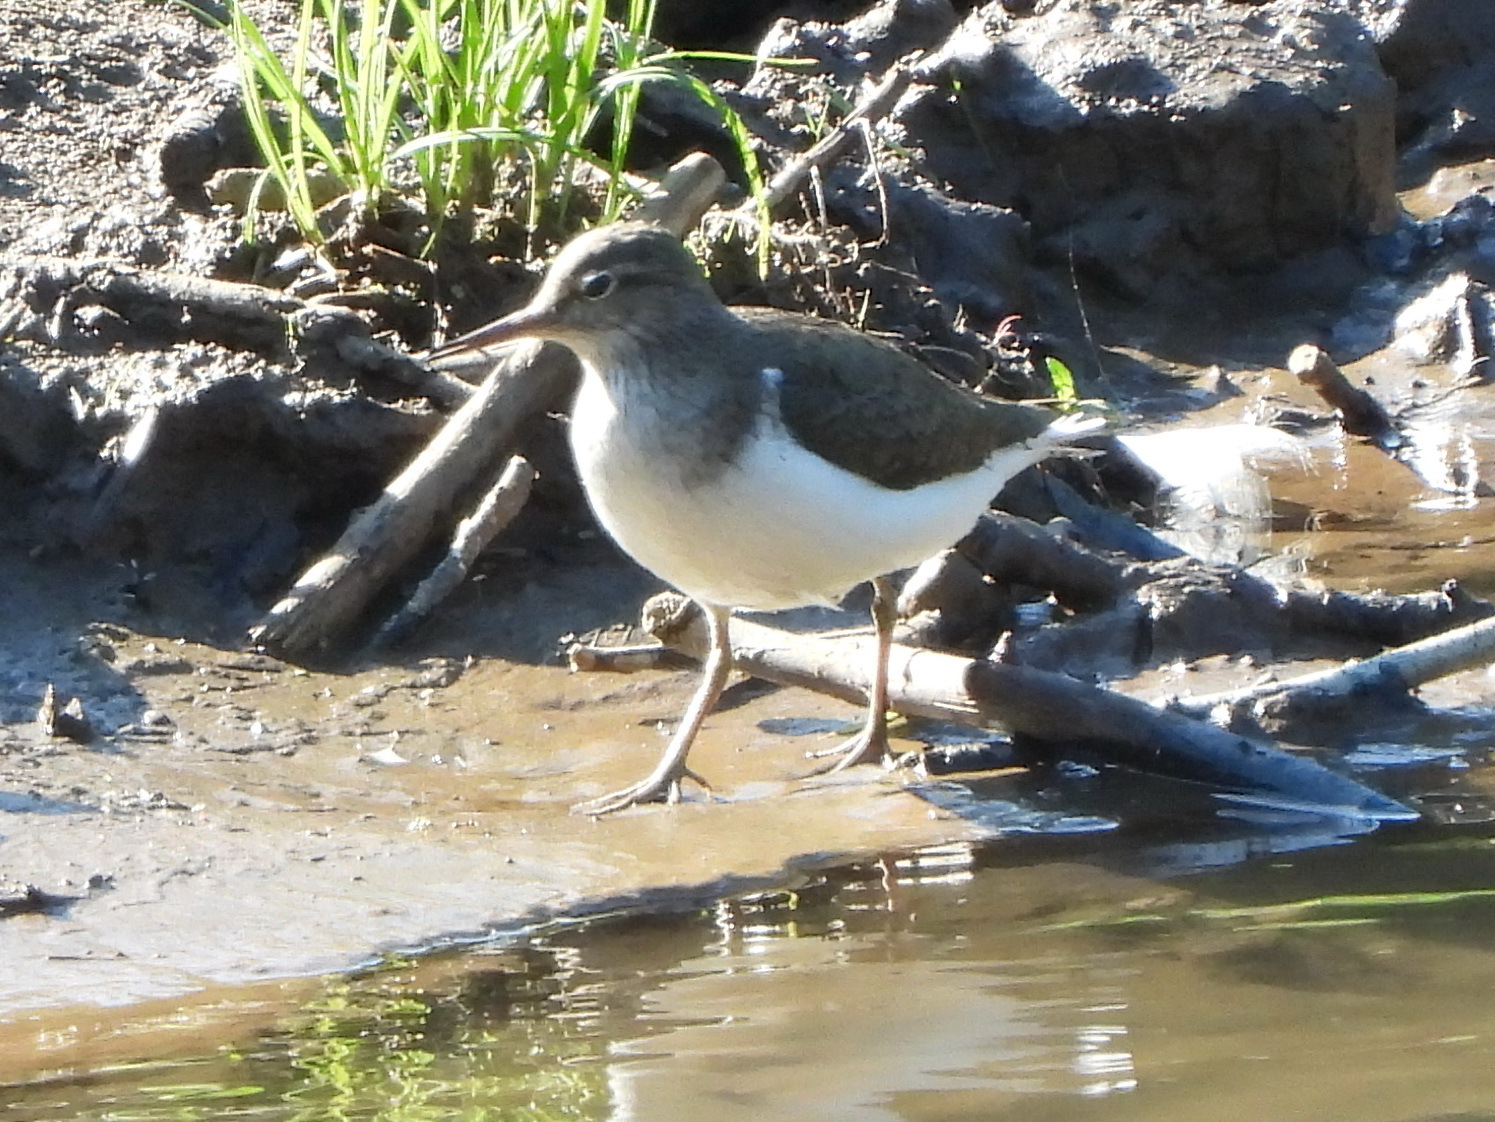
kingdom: Animalia
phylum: Chordata
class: Aves
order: Charadriiformes
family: Scolopacidae
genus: Actitis
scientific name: Actitis hypoleucos
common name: Common sandpiper
